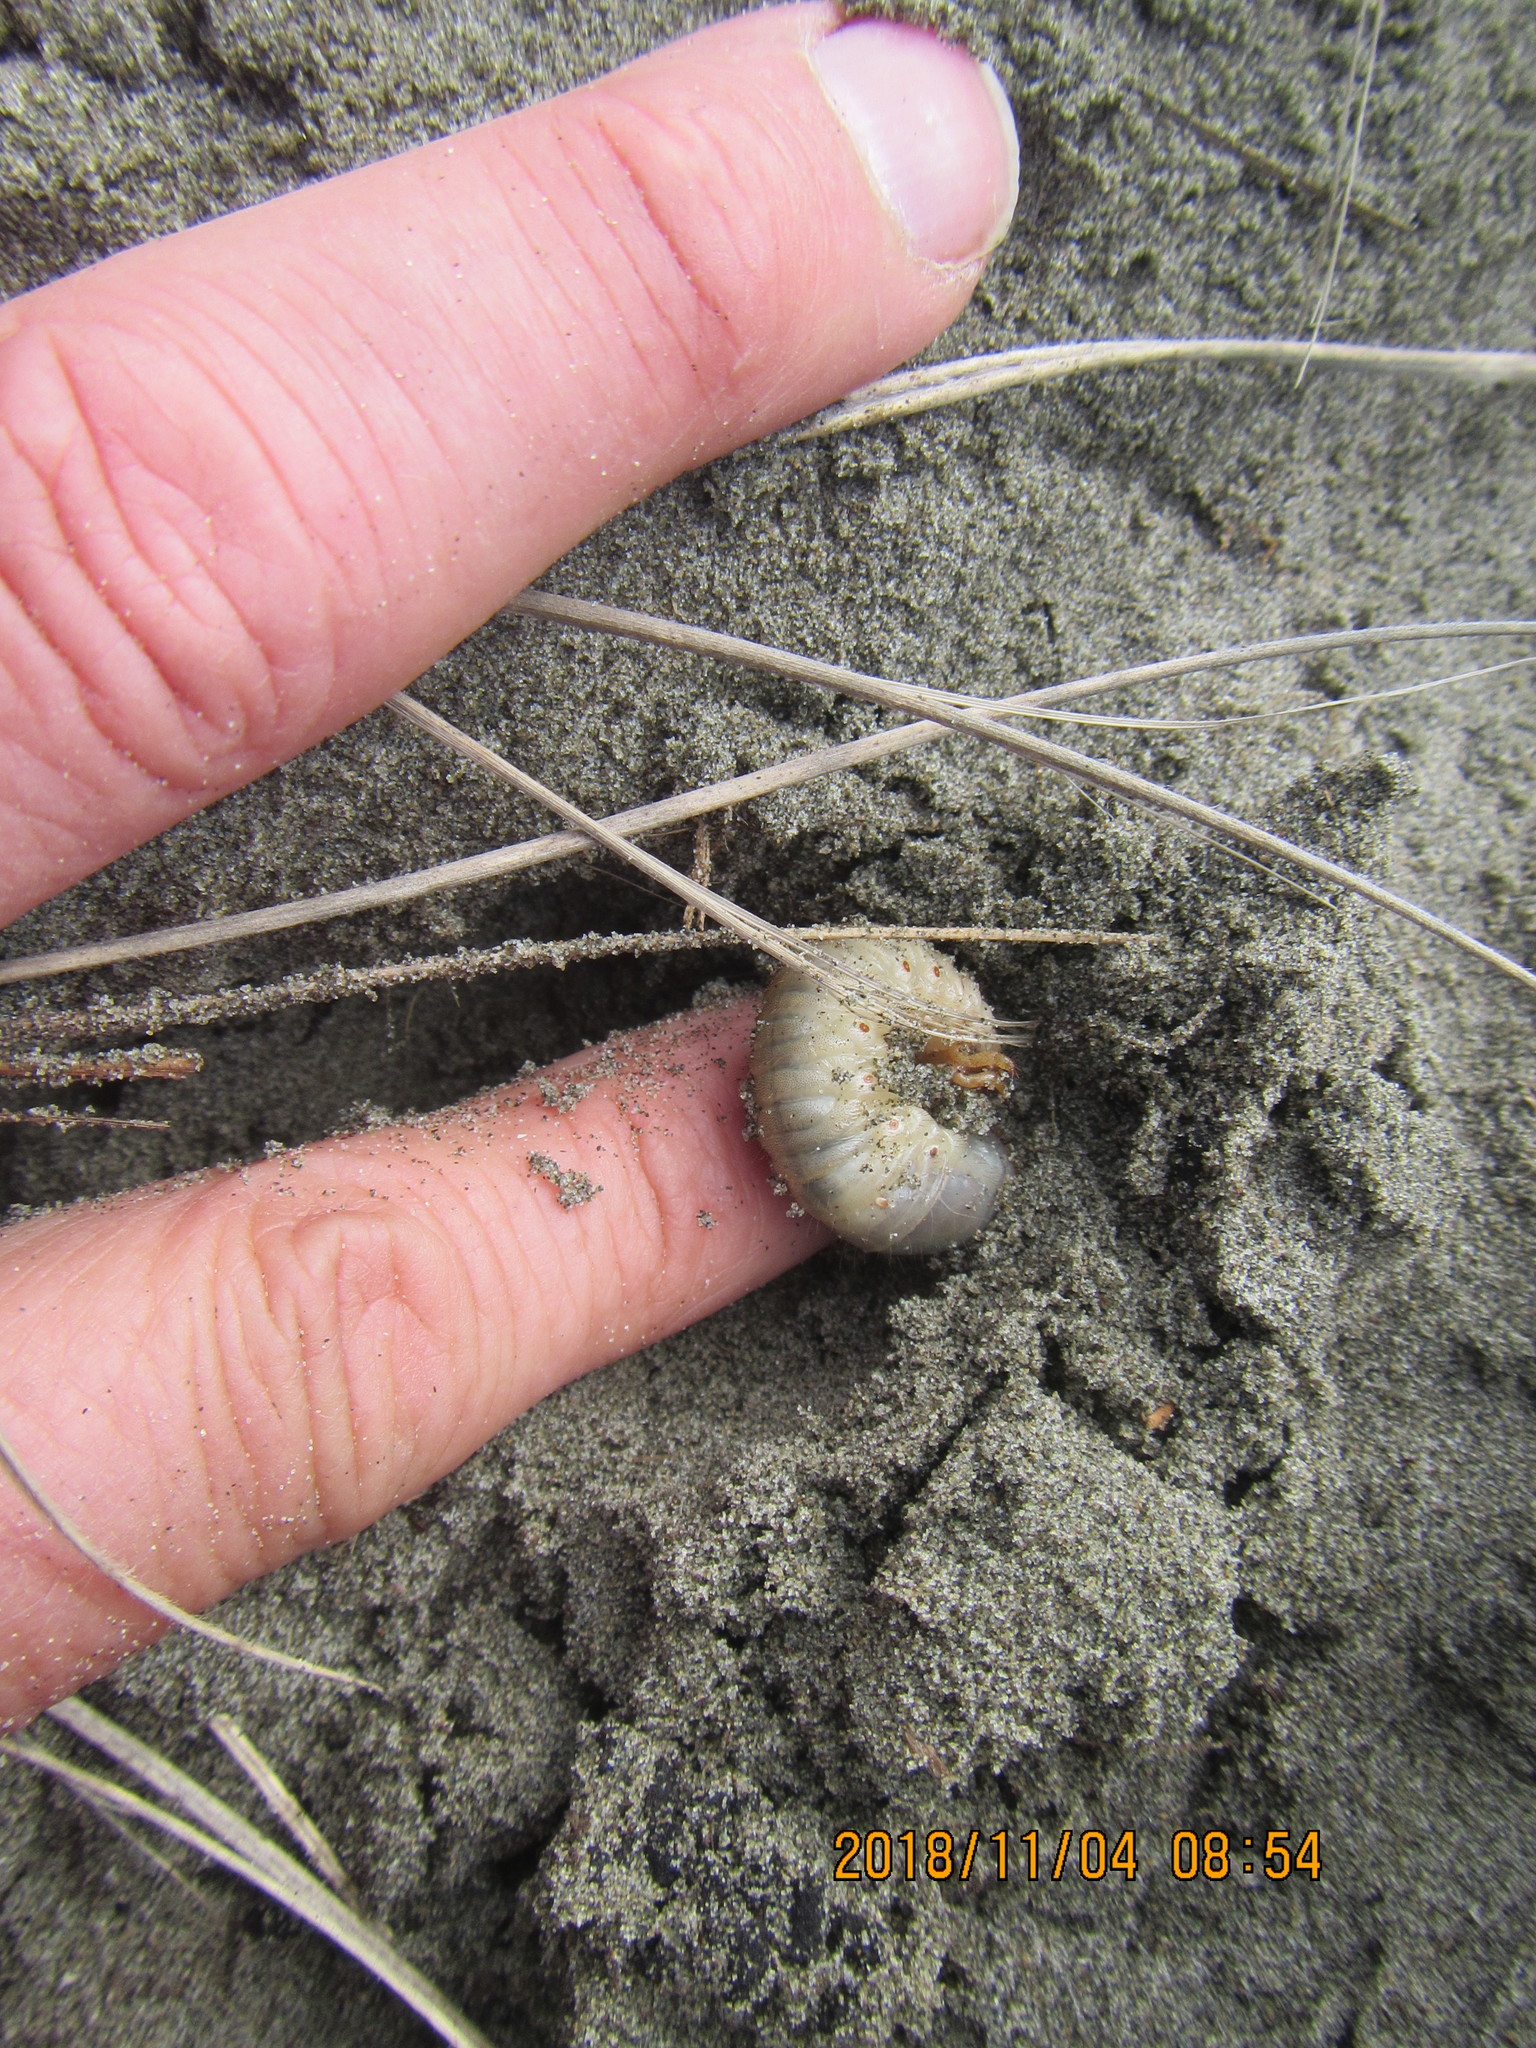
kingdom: Animalia
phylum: Arthropoda
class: Insecta
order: Coleoptera
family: Scarabaeidae
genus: Pericoptus
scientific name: Pericoptus truncatus
